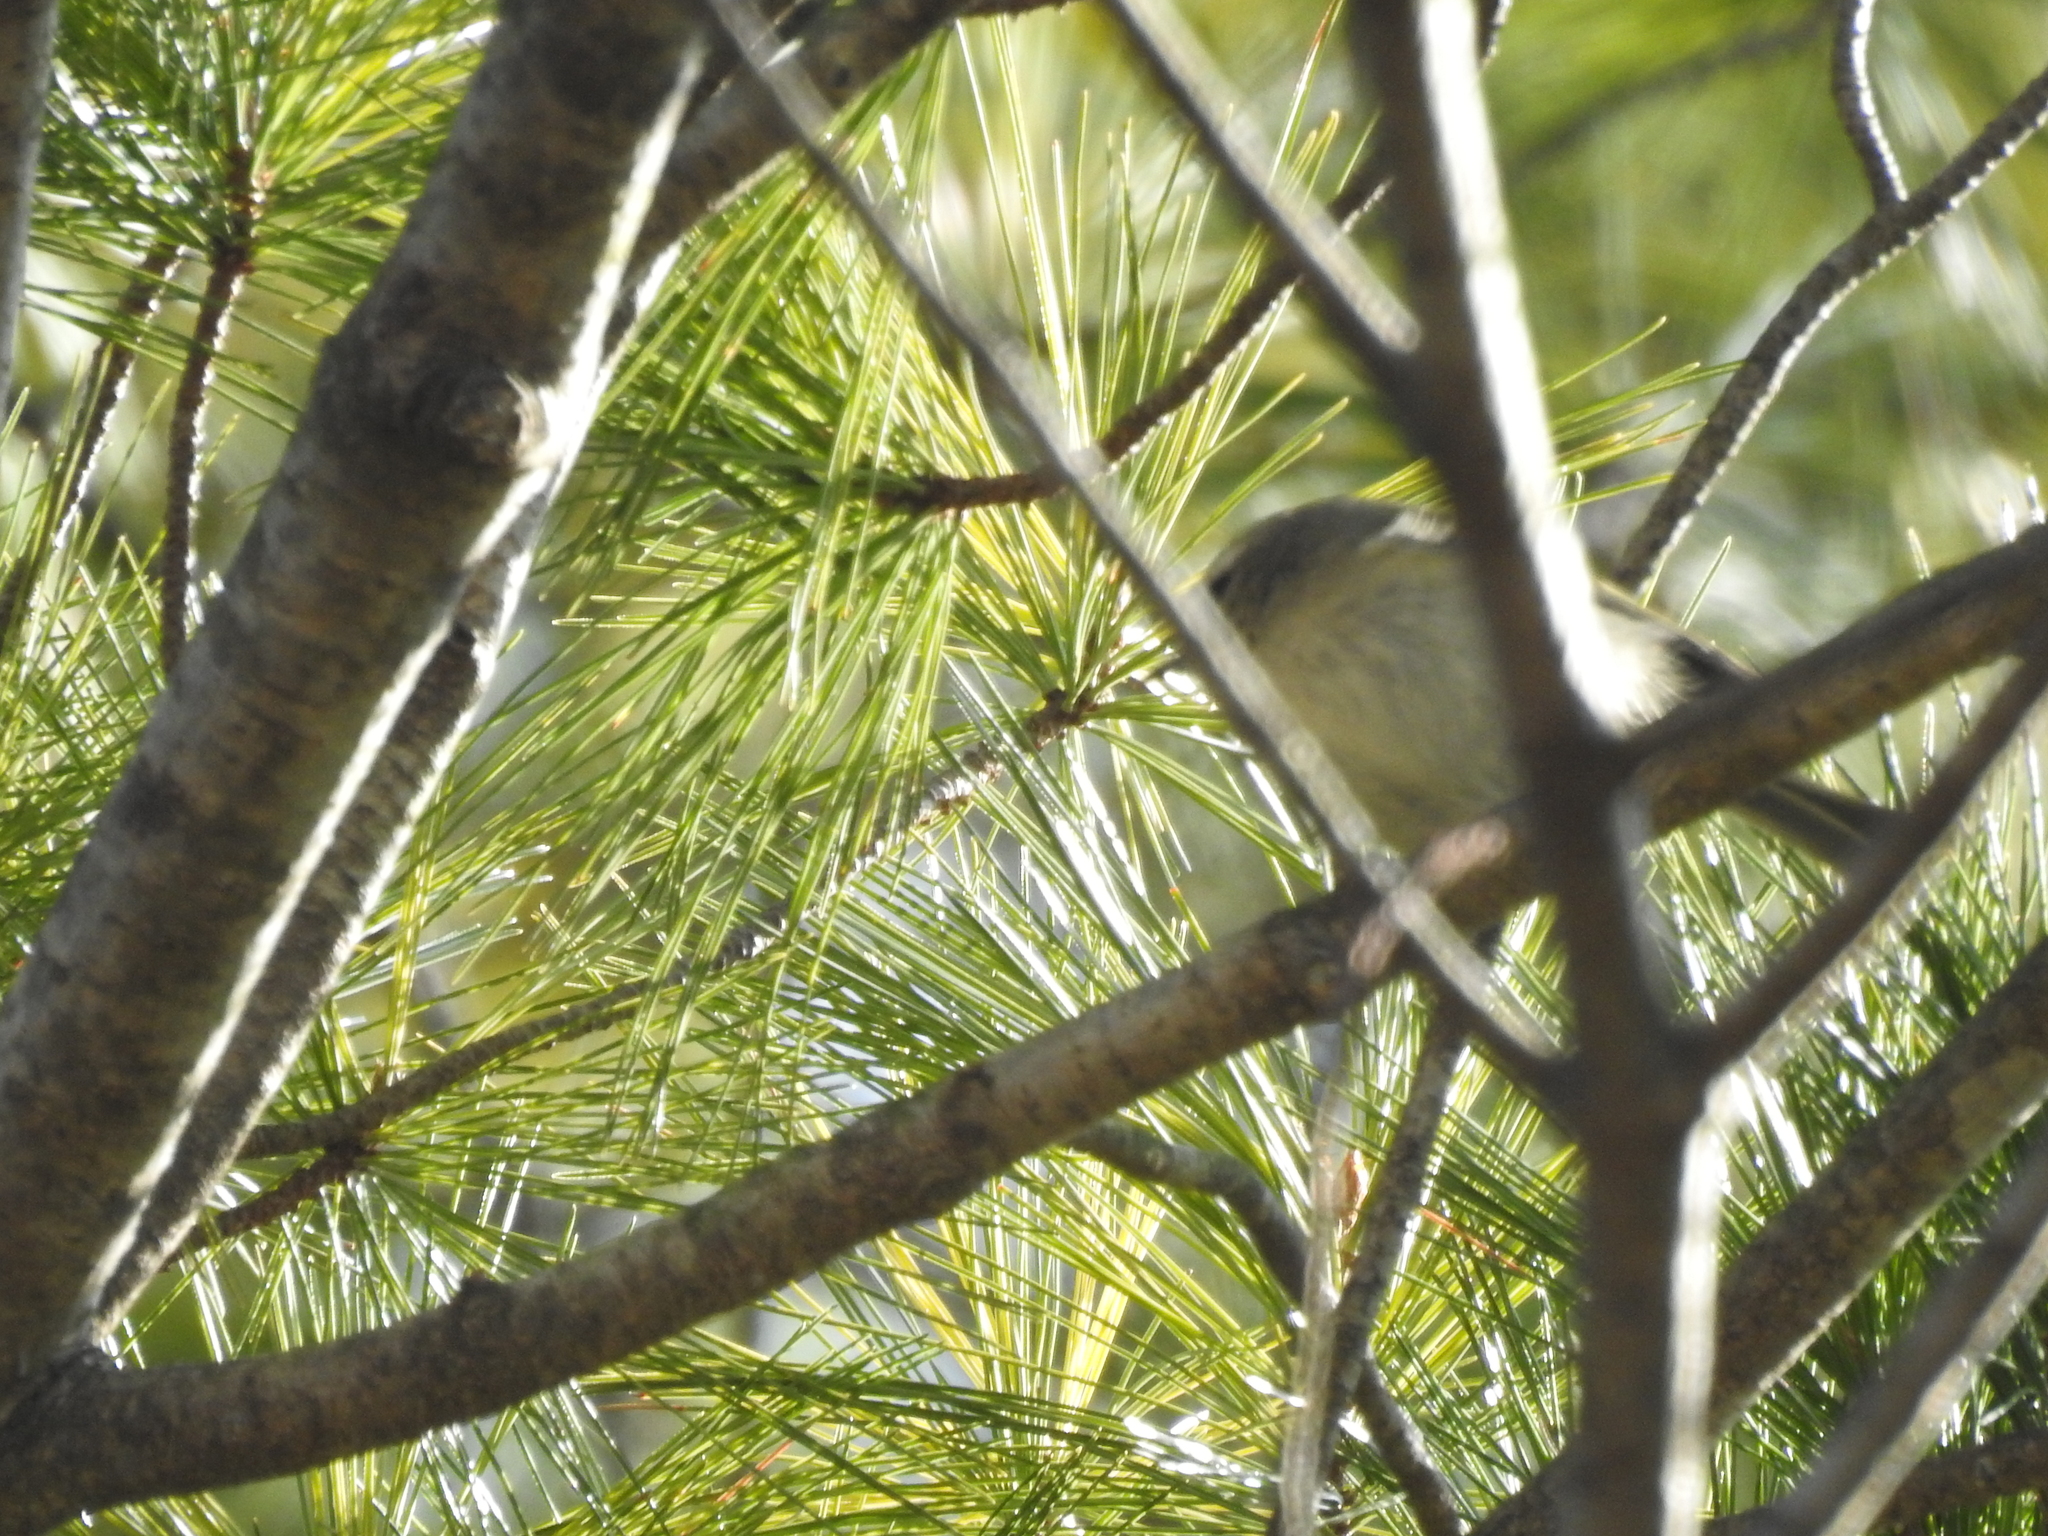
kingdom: Animalia
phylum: Chordata
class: Aves
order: Passeriformes
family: Regulidae
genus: Regulus
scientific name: Regulus satrapa
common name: Golden-crowned kinglet
